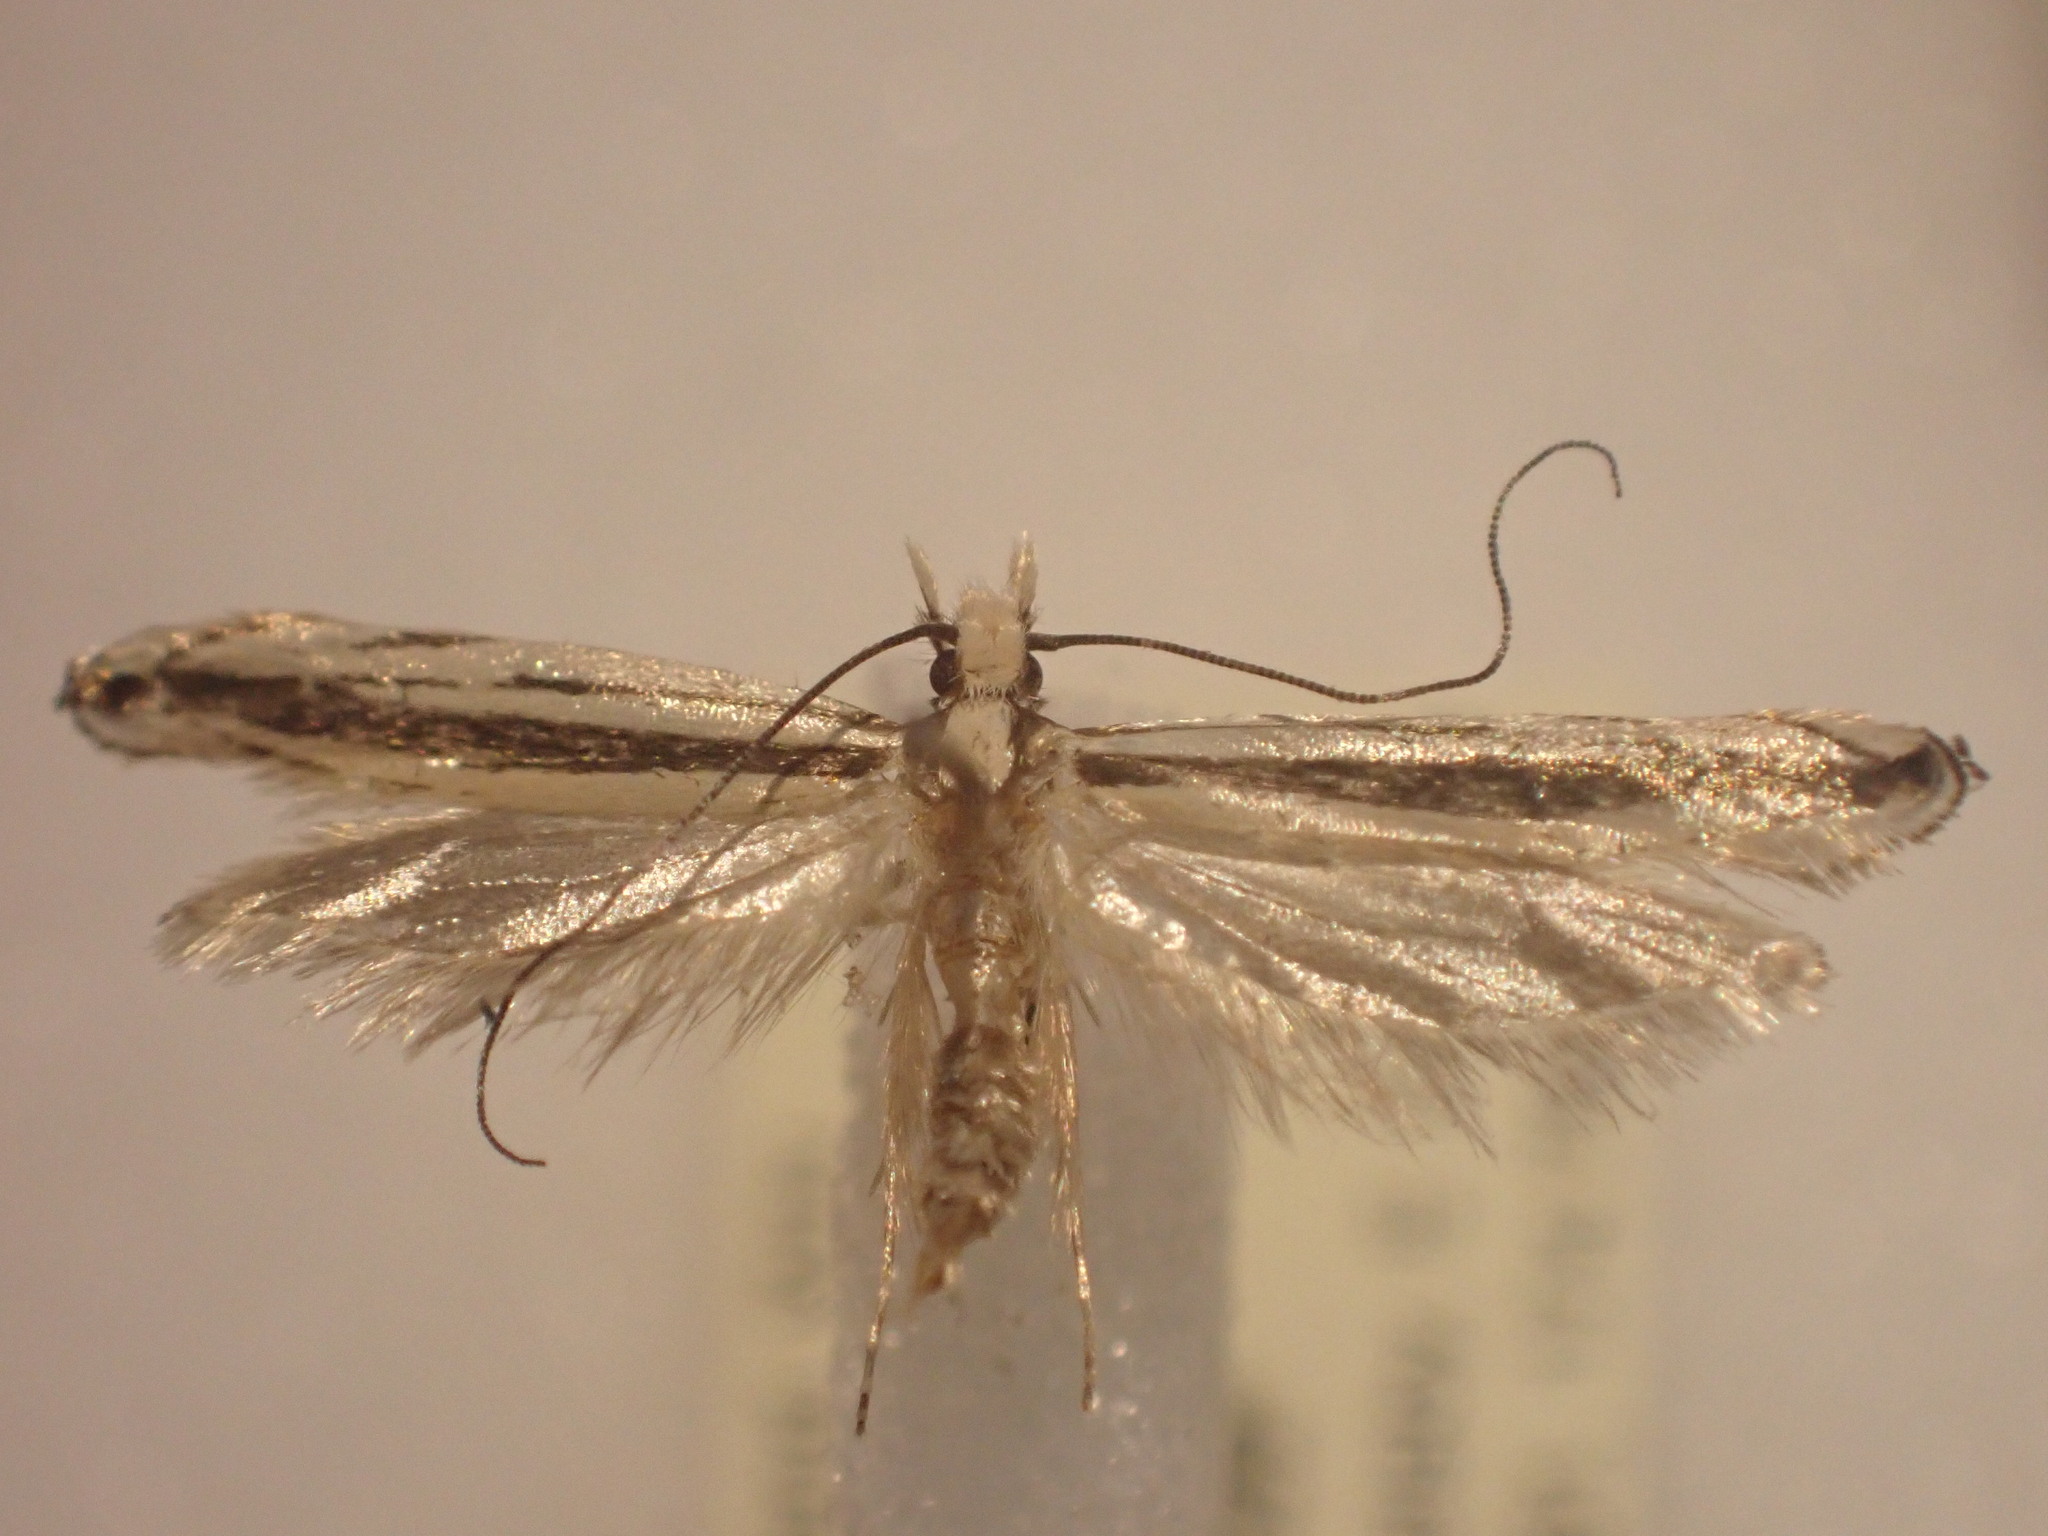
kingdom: Animalia
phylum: Arthropoda
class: Insecta
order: Lepidoptera
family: Tineidae
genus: Erechthias
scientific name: Erechthias stilbella
